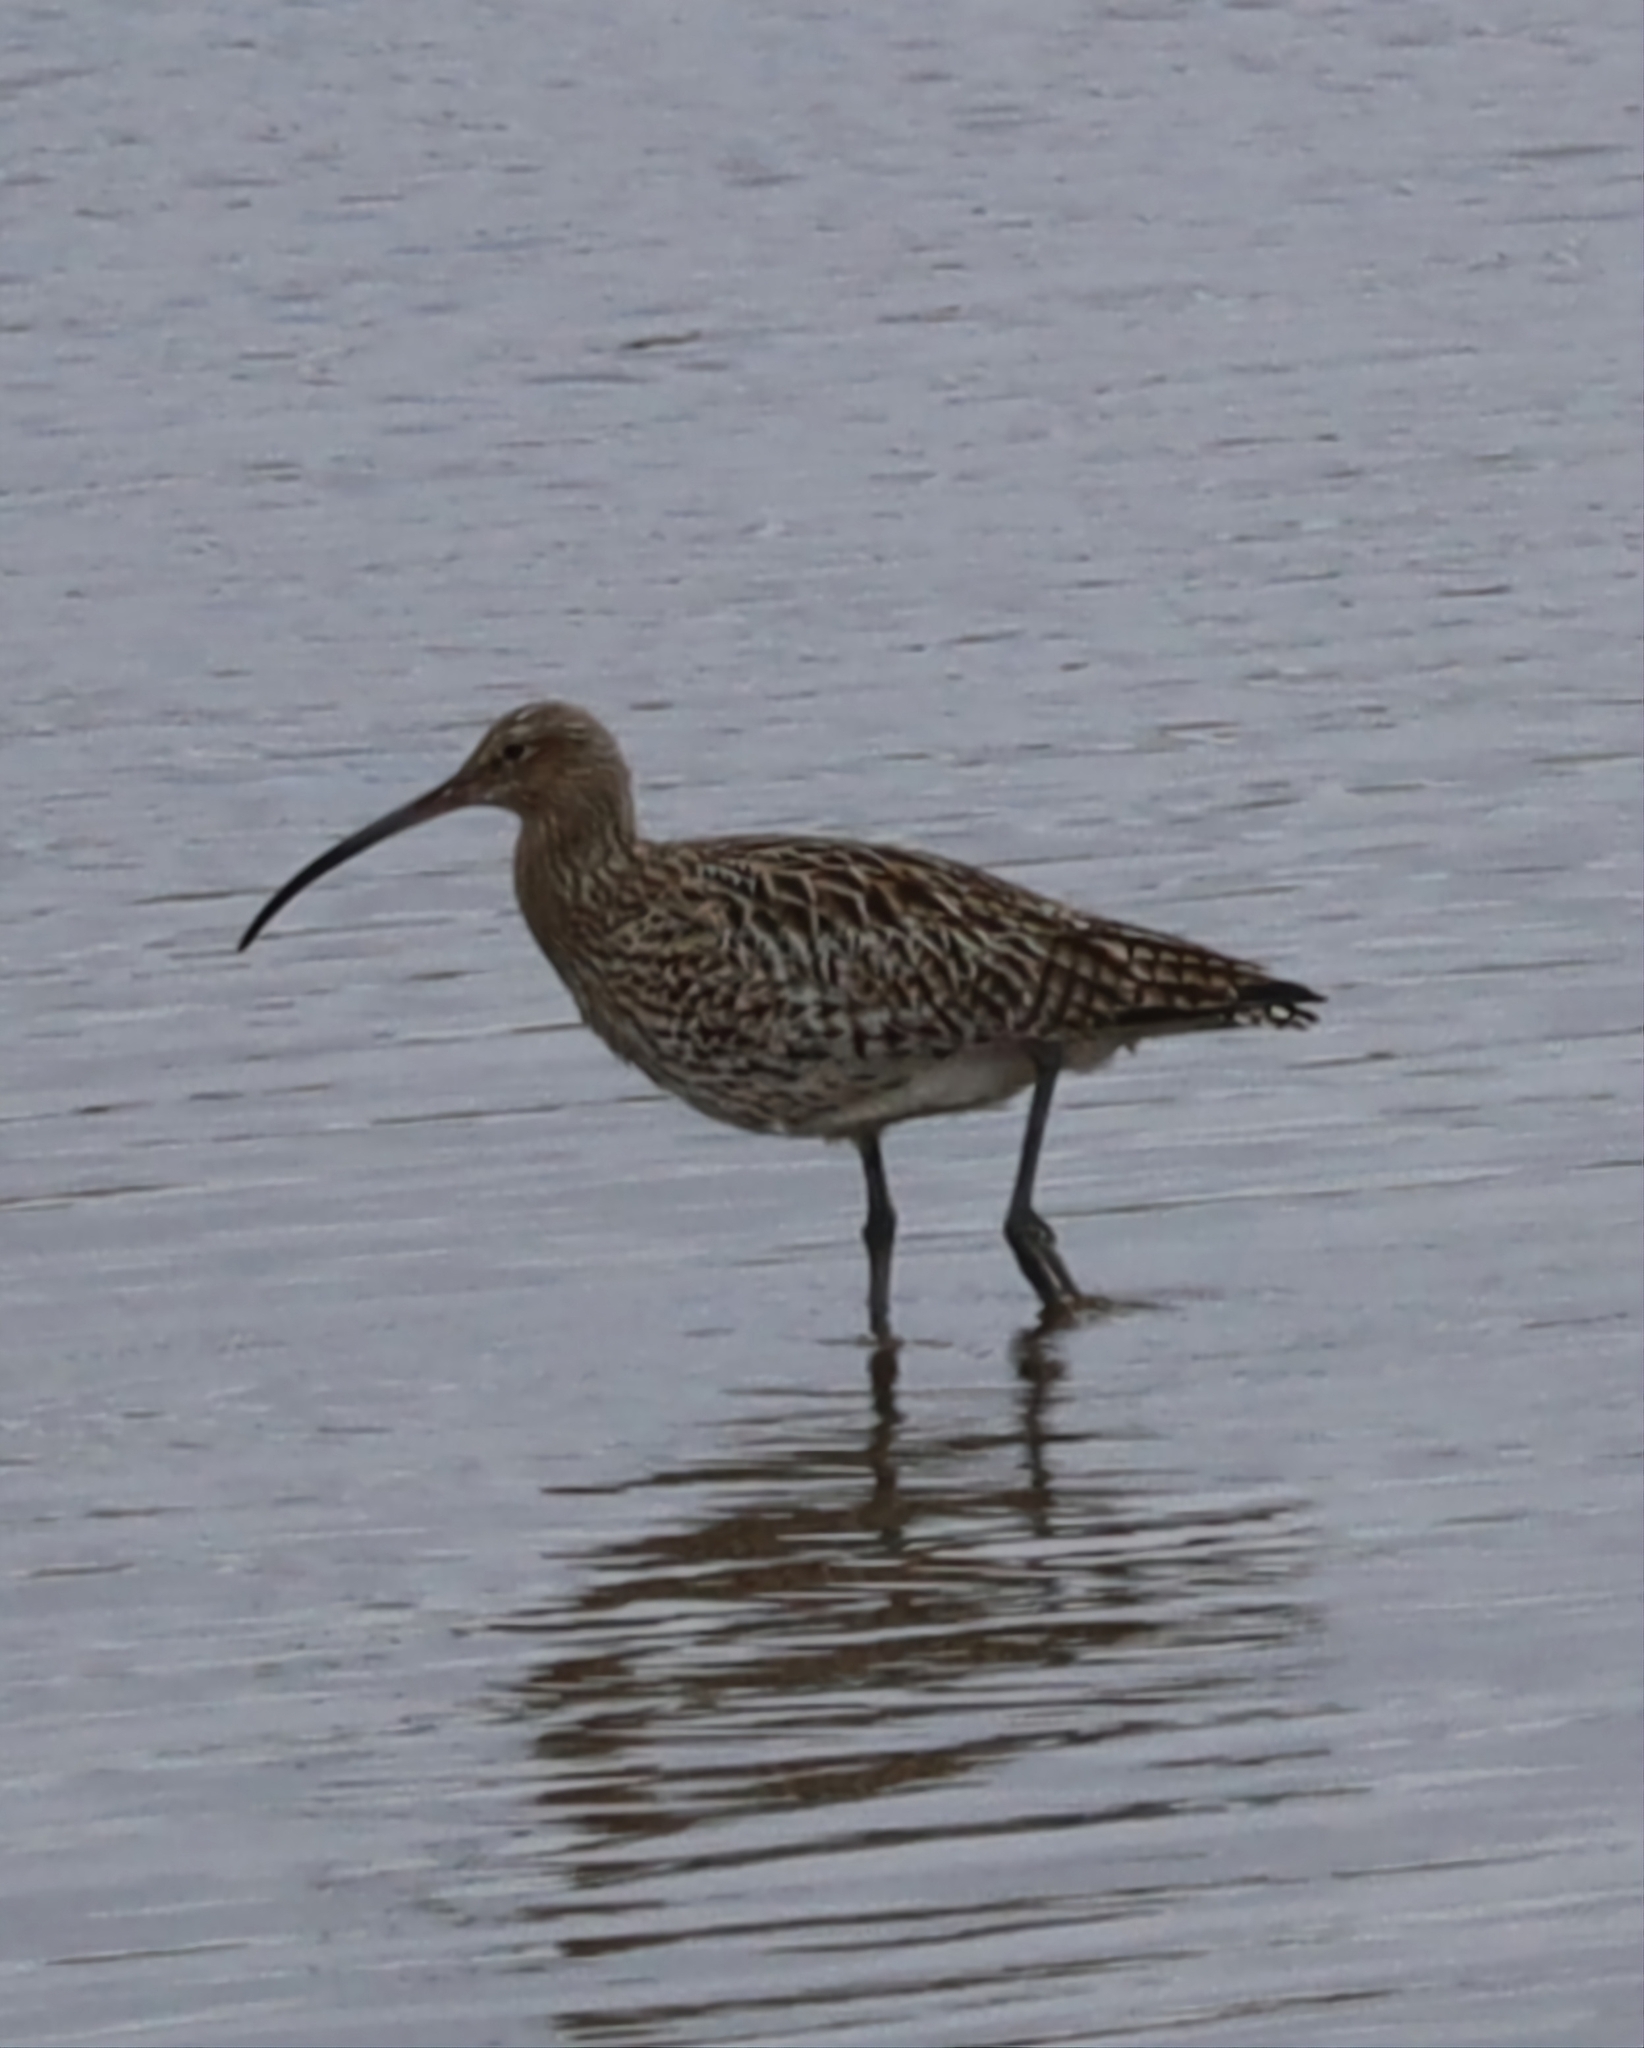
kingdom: Animalia
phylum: Chordata
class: Aves
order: Charadriiformes
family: Scolopacidae
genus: Numenius
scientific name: Numenius arquata
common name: Eurasian curlew
